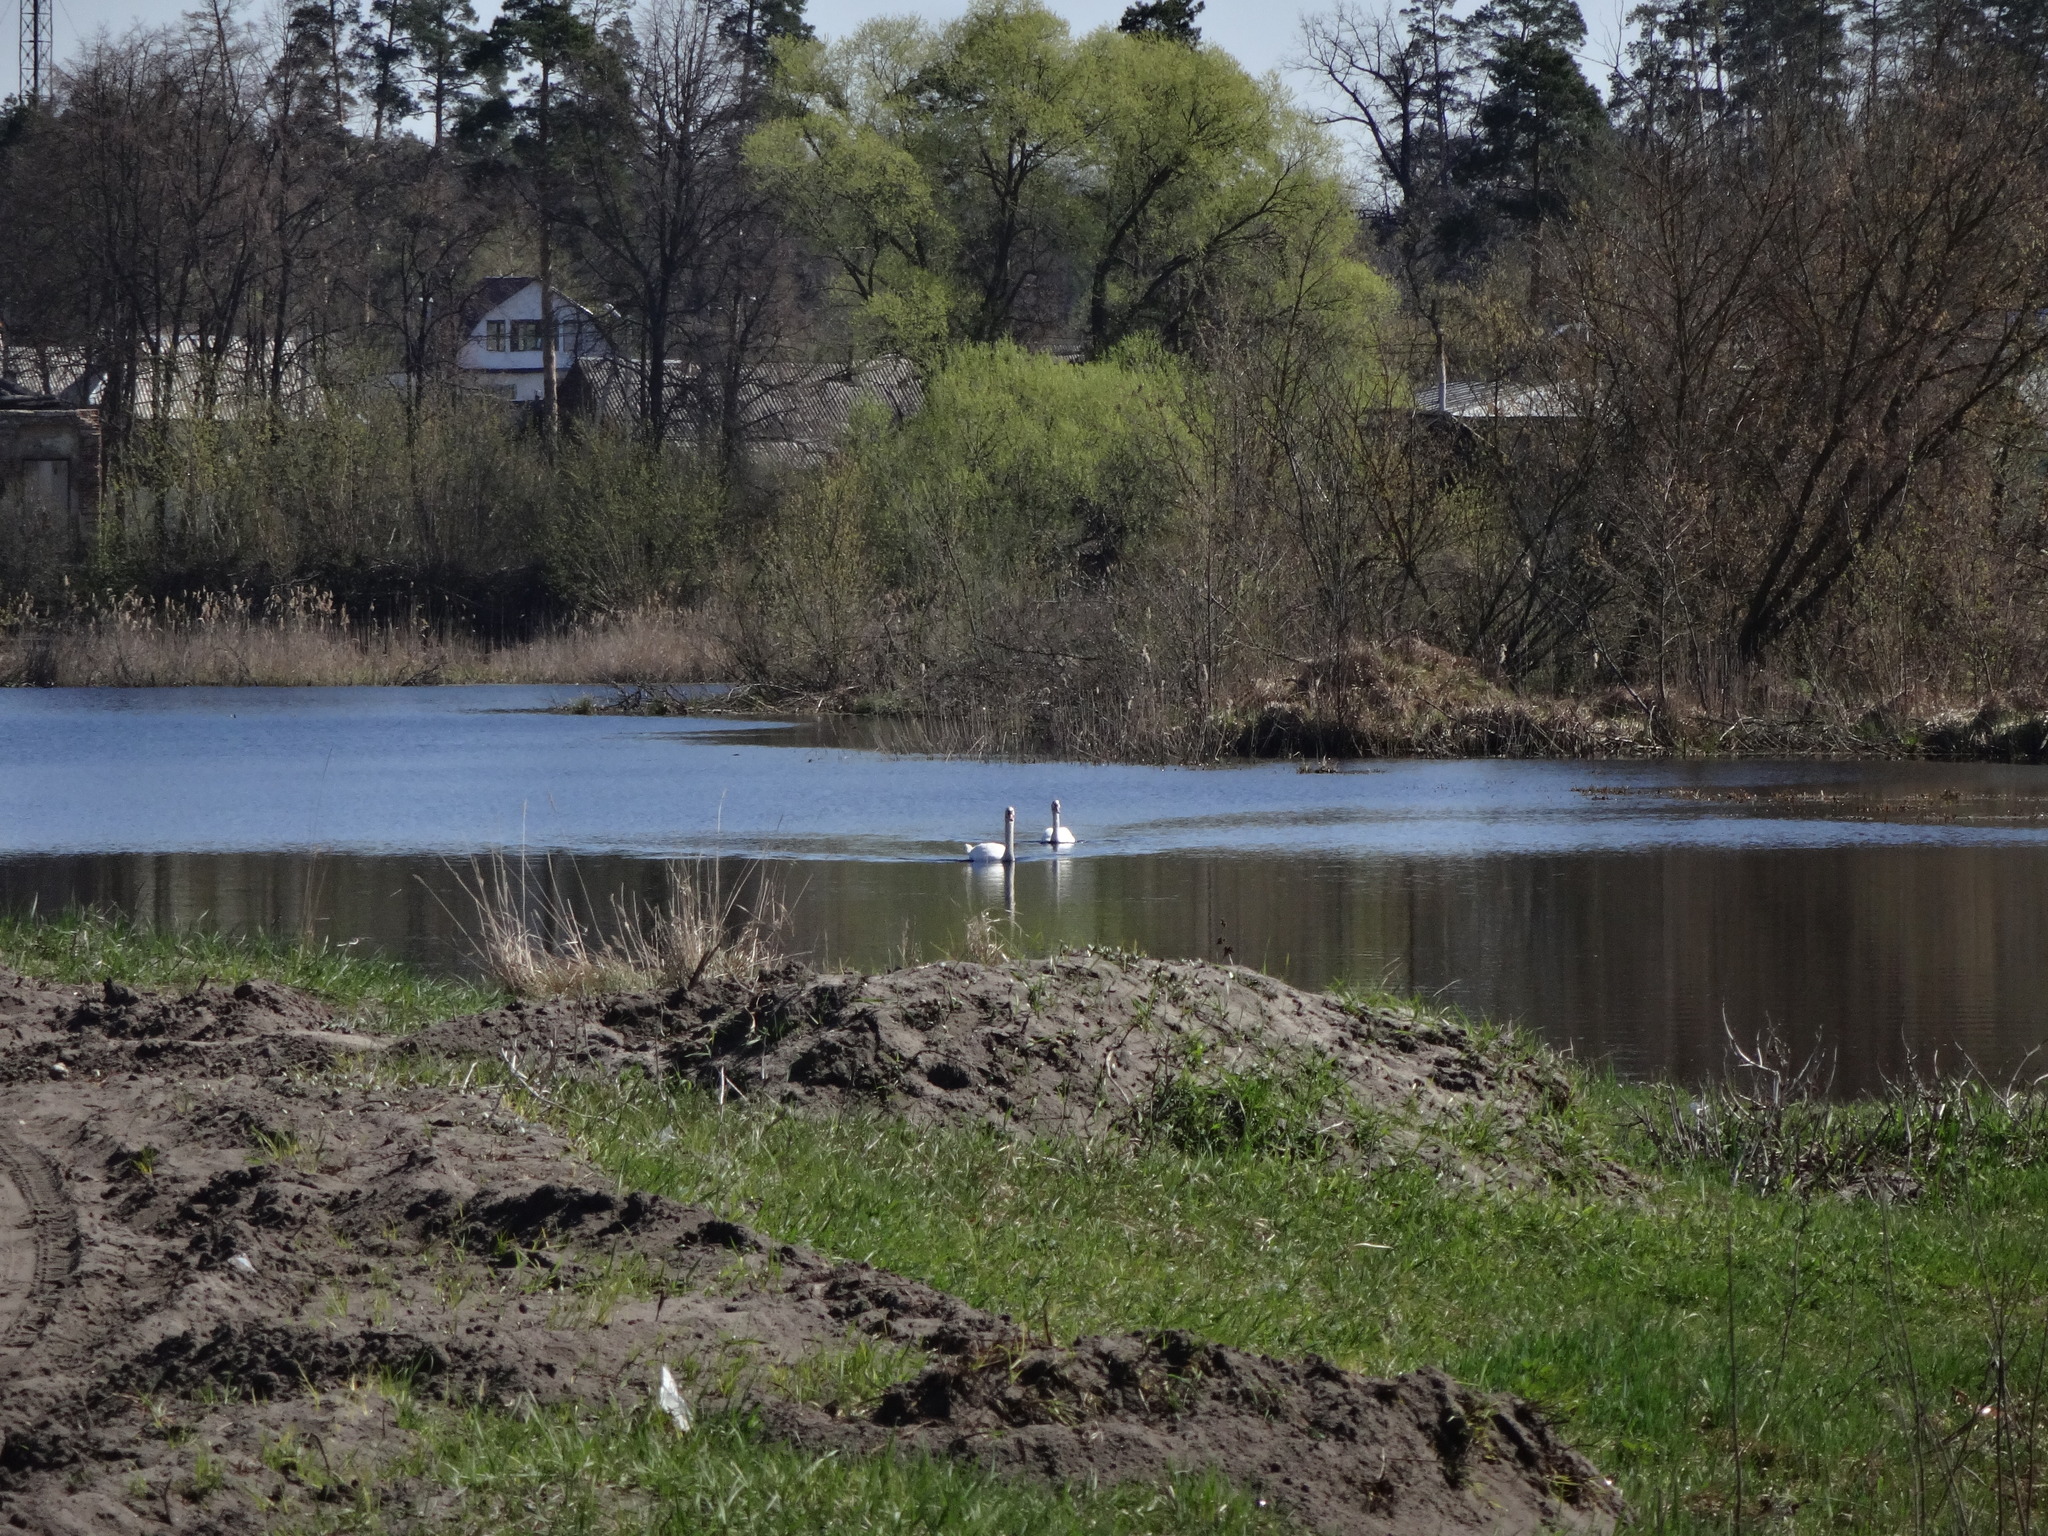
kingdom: Animalia
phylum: Chordata
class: Aves
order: Anseriformes
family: Anatidae
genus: Cygnus
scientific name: Cygnus olor
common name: Mute swan
